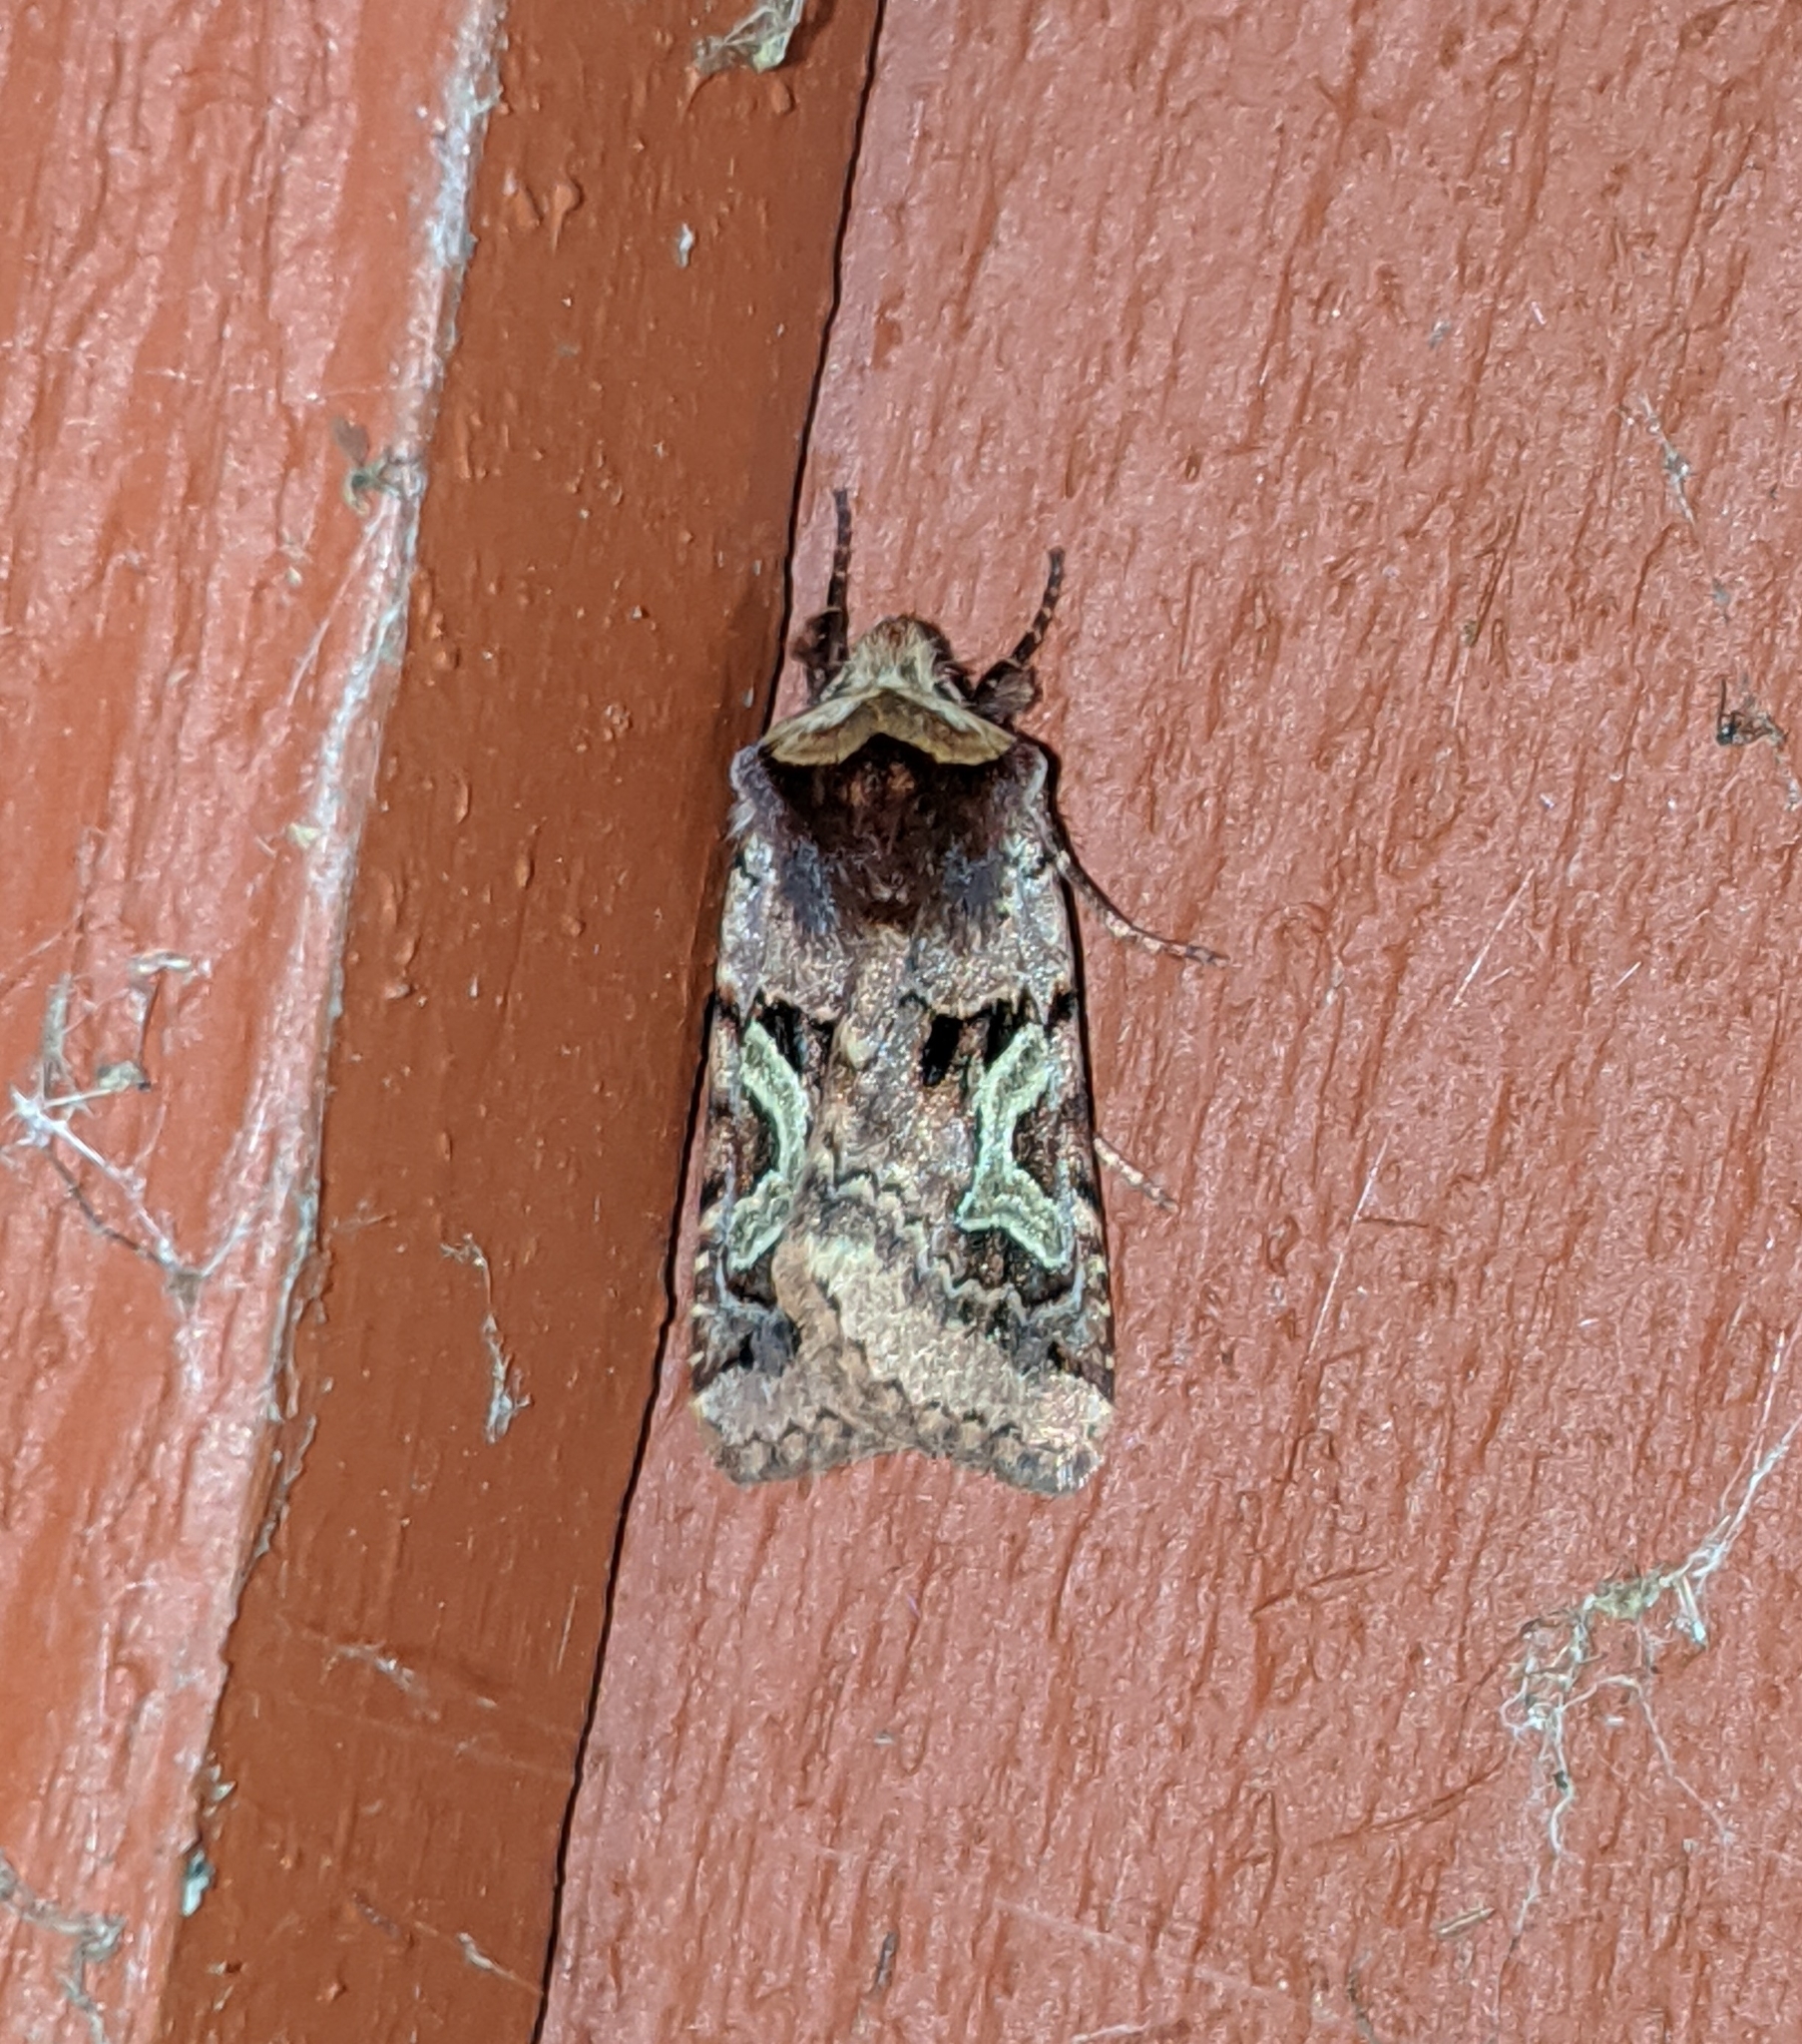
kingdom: Animalia
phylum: Arthropoda
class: Insecta
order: Lepidoptera
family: Noctuidae
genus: Cerastis
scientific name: Cerastis enigmatica
